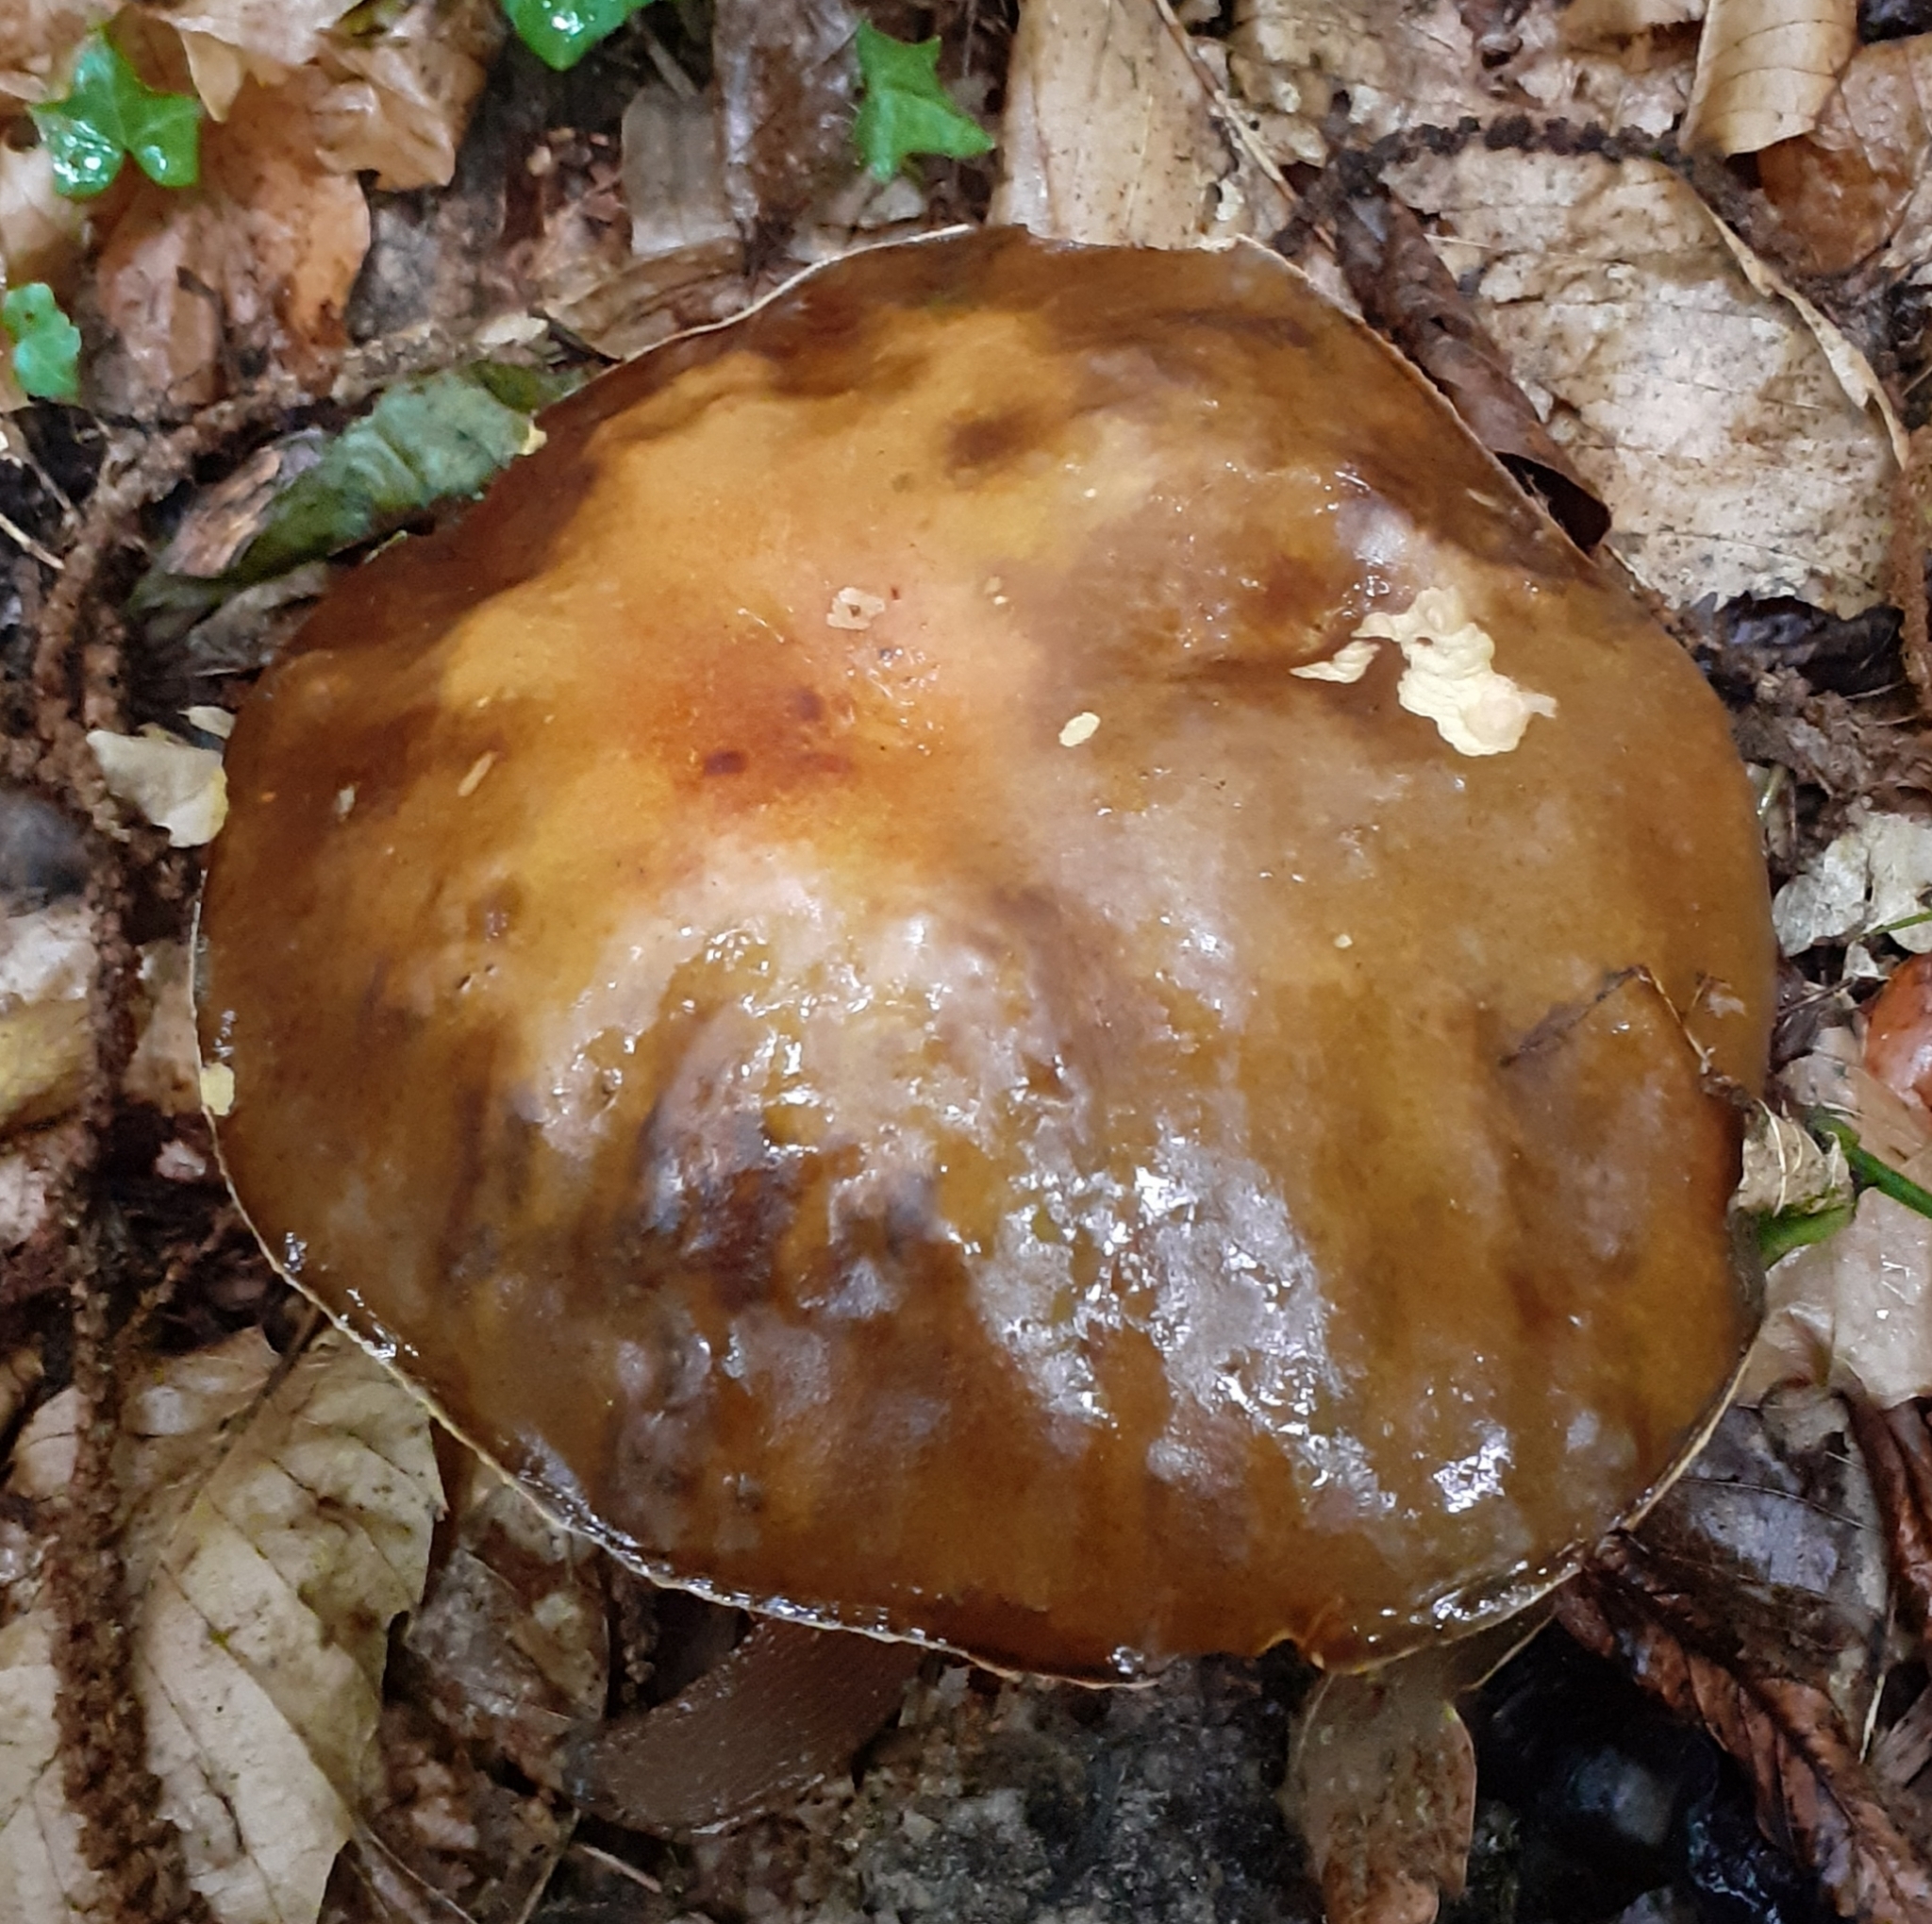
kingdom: Fungi
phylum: Basidiomycota
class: Agaricomycetes
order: Boletales
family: Boletaceae
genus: Boletus
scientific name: Boletus aereus
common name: Bronze bolete
